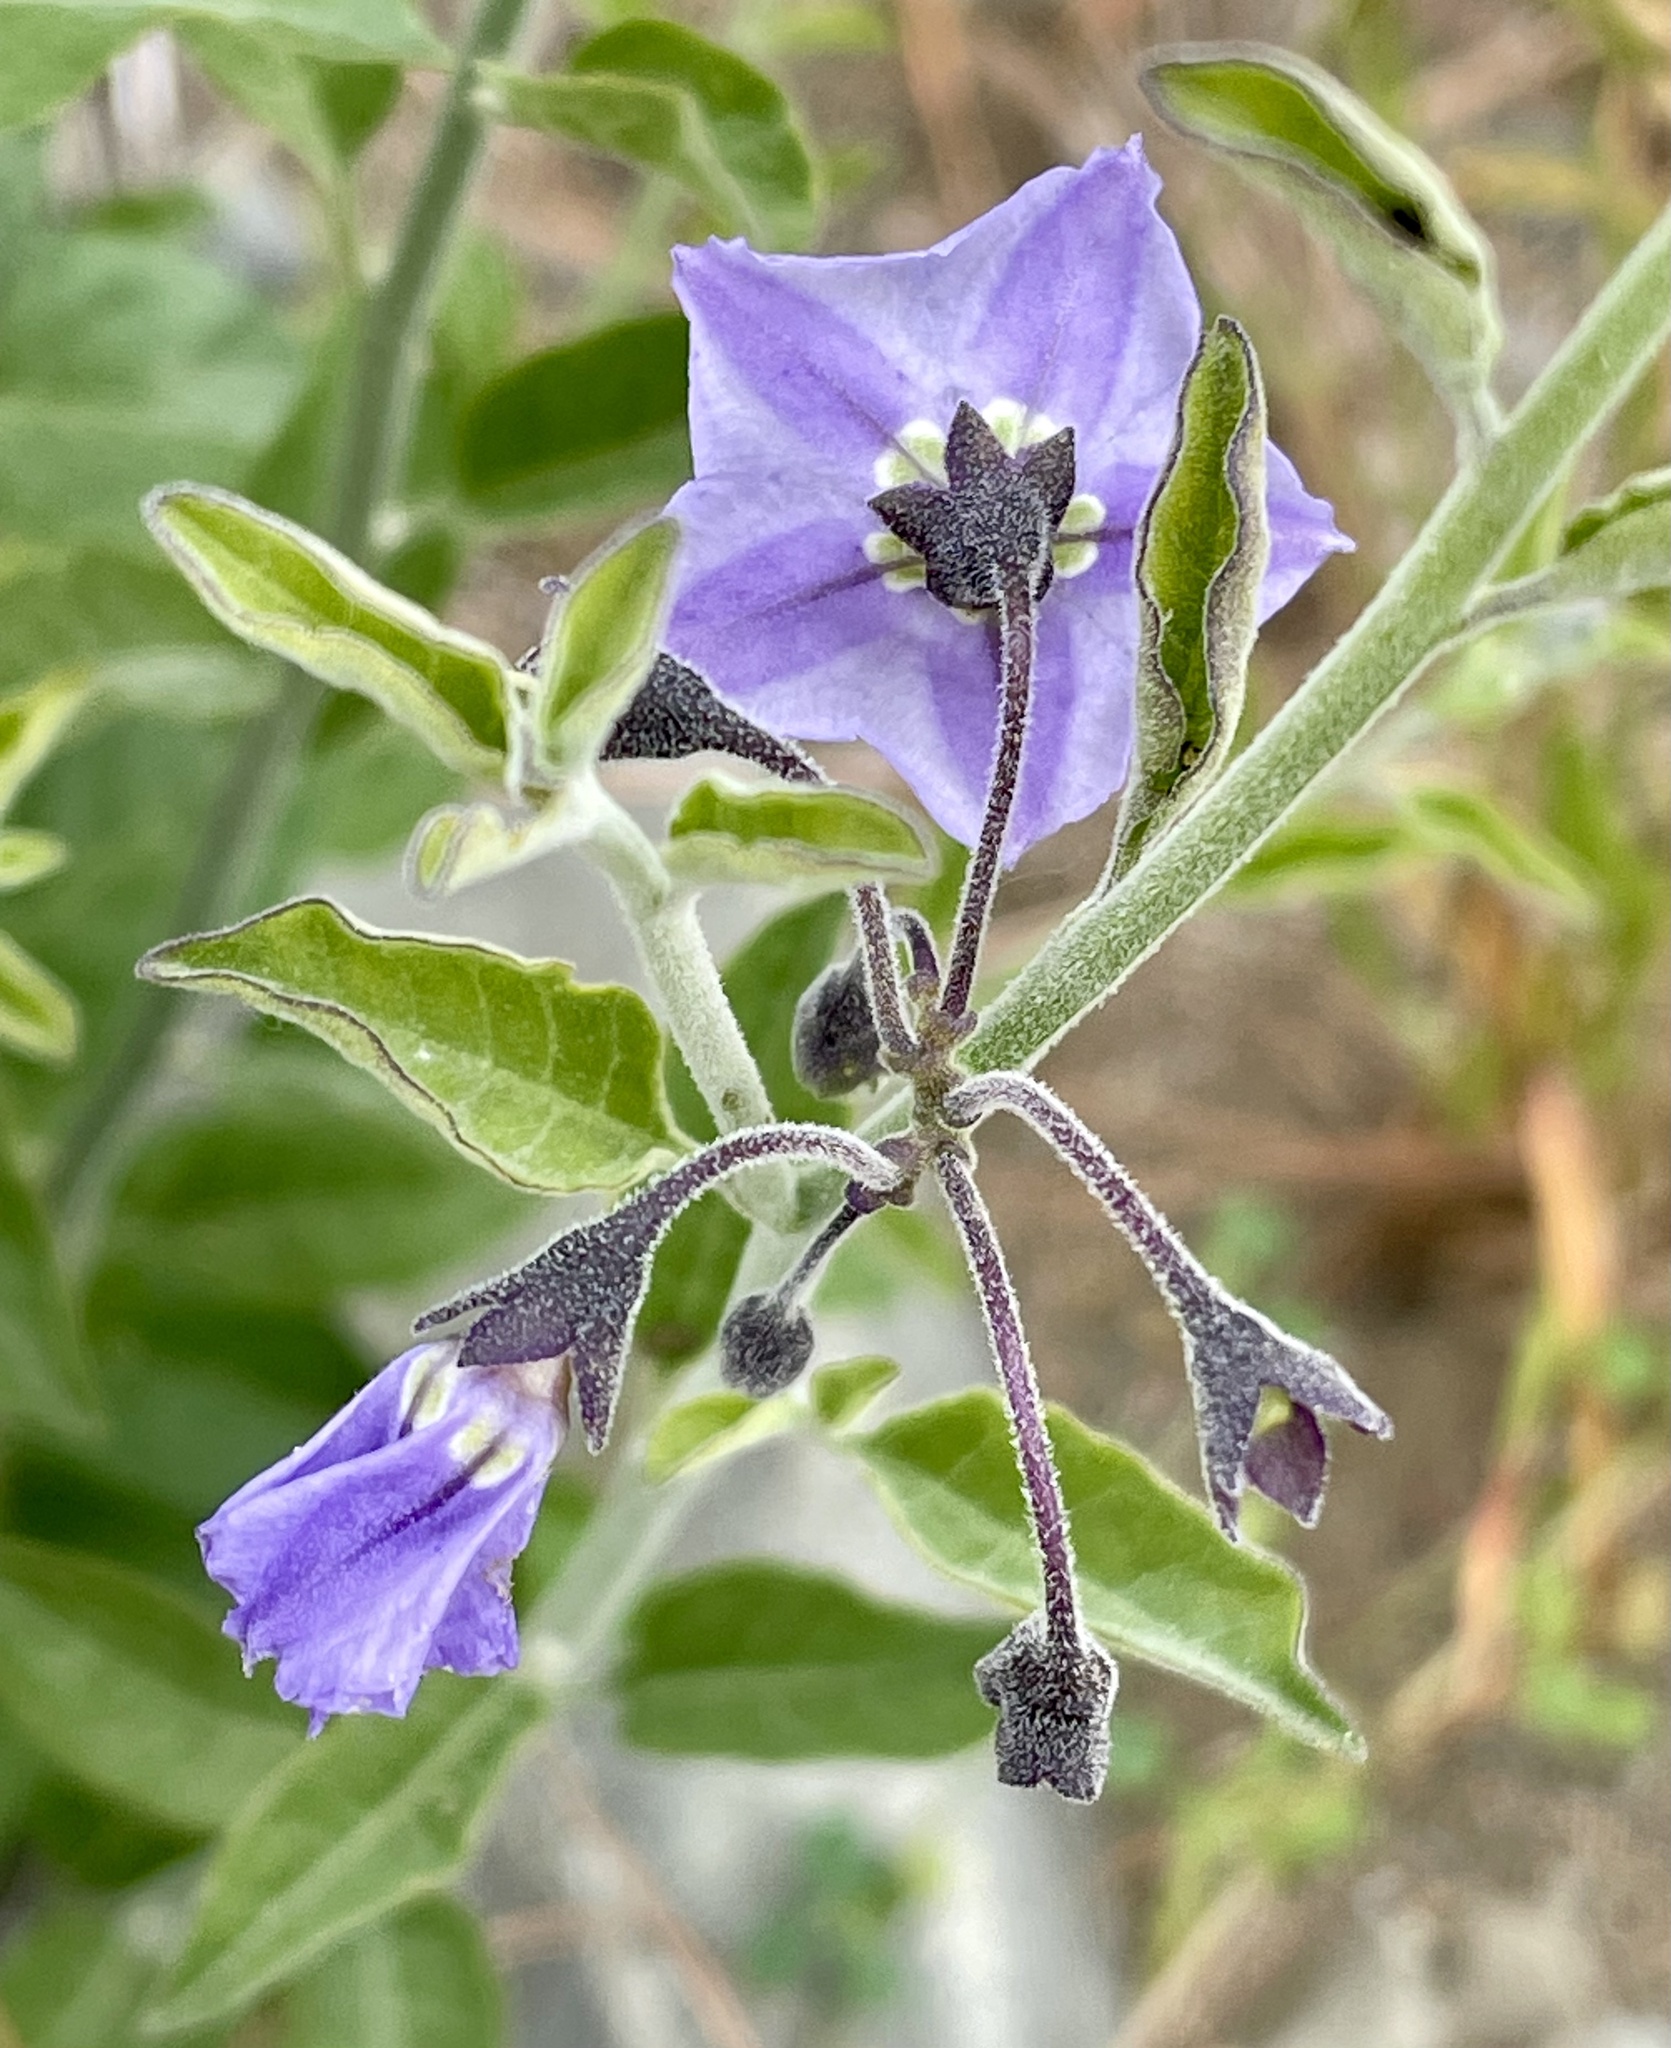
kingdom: Plantae
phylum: Tracheophyta
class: Magnoliopsida
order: Solanales
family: Solanaceae
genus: Solanum
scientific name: Solanum umbelliferum
